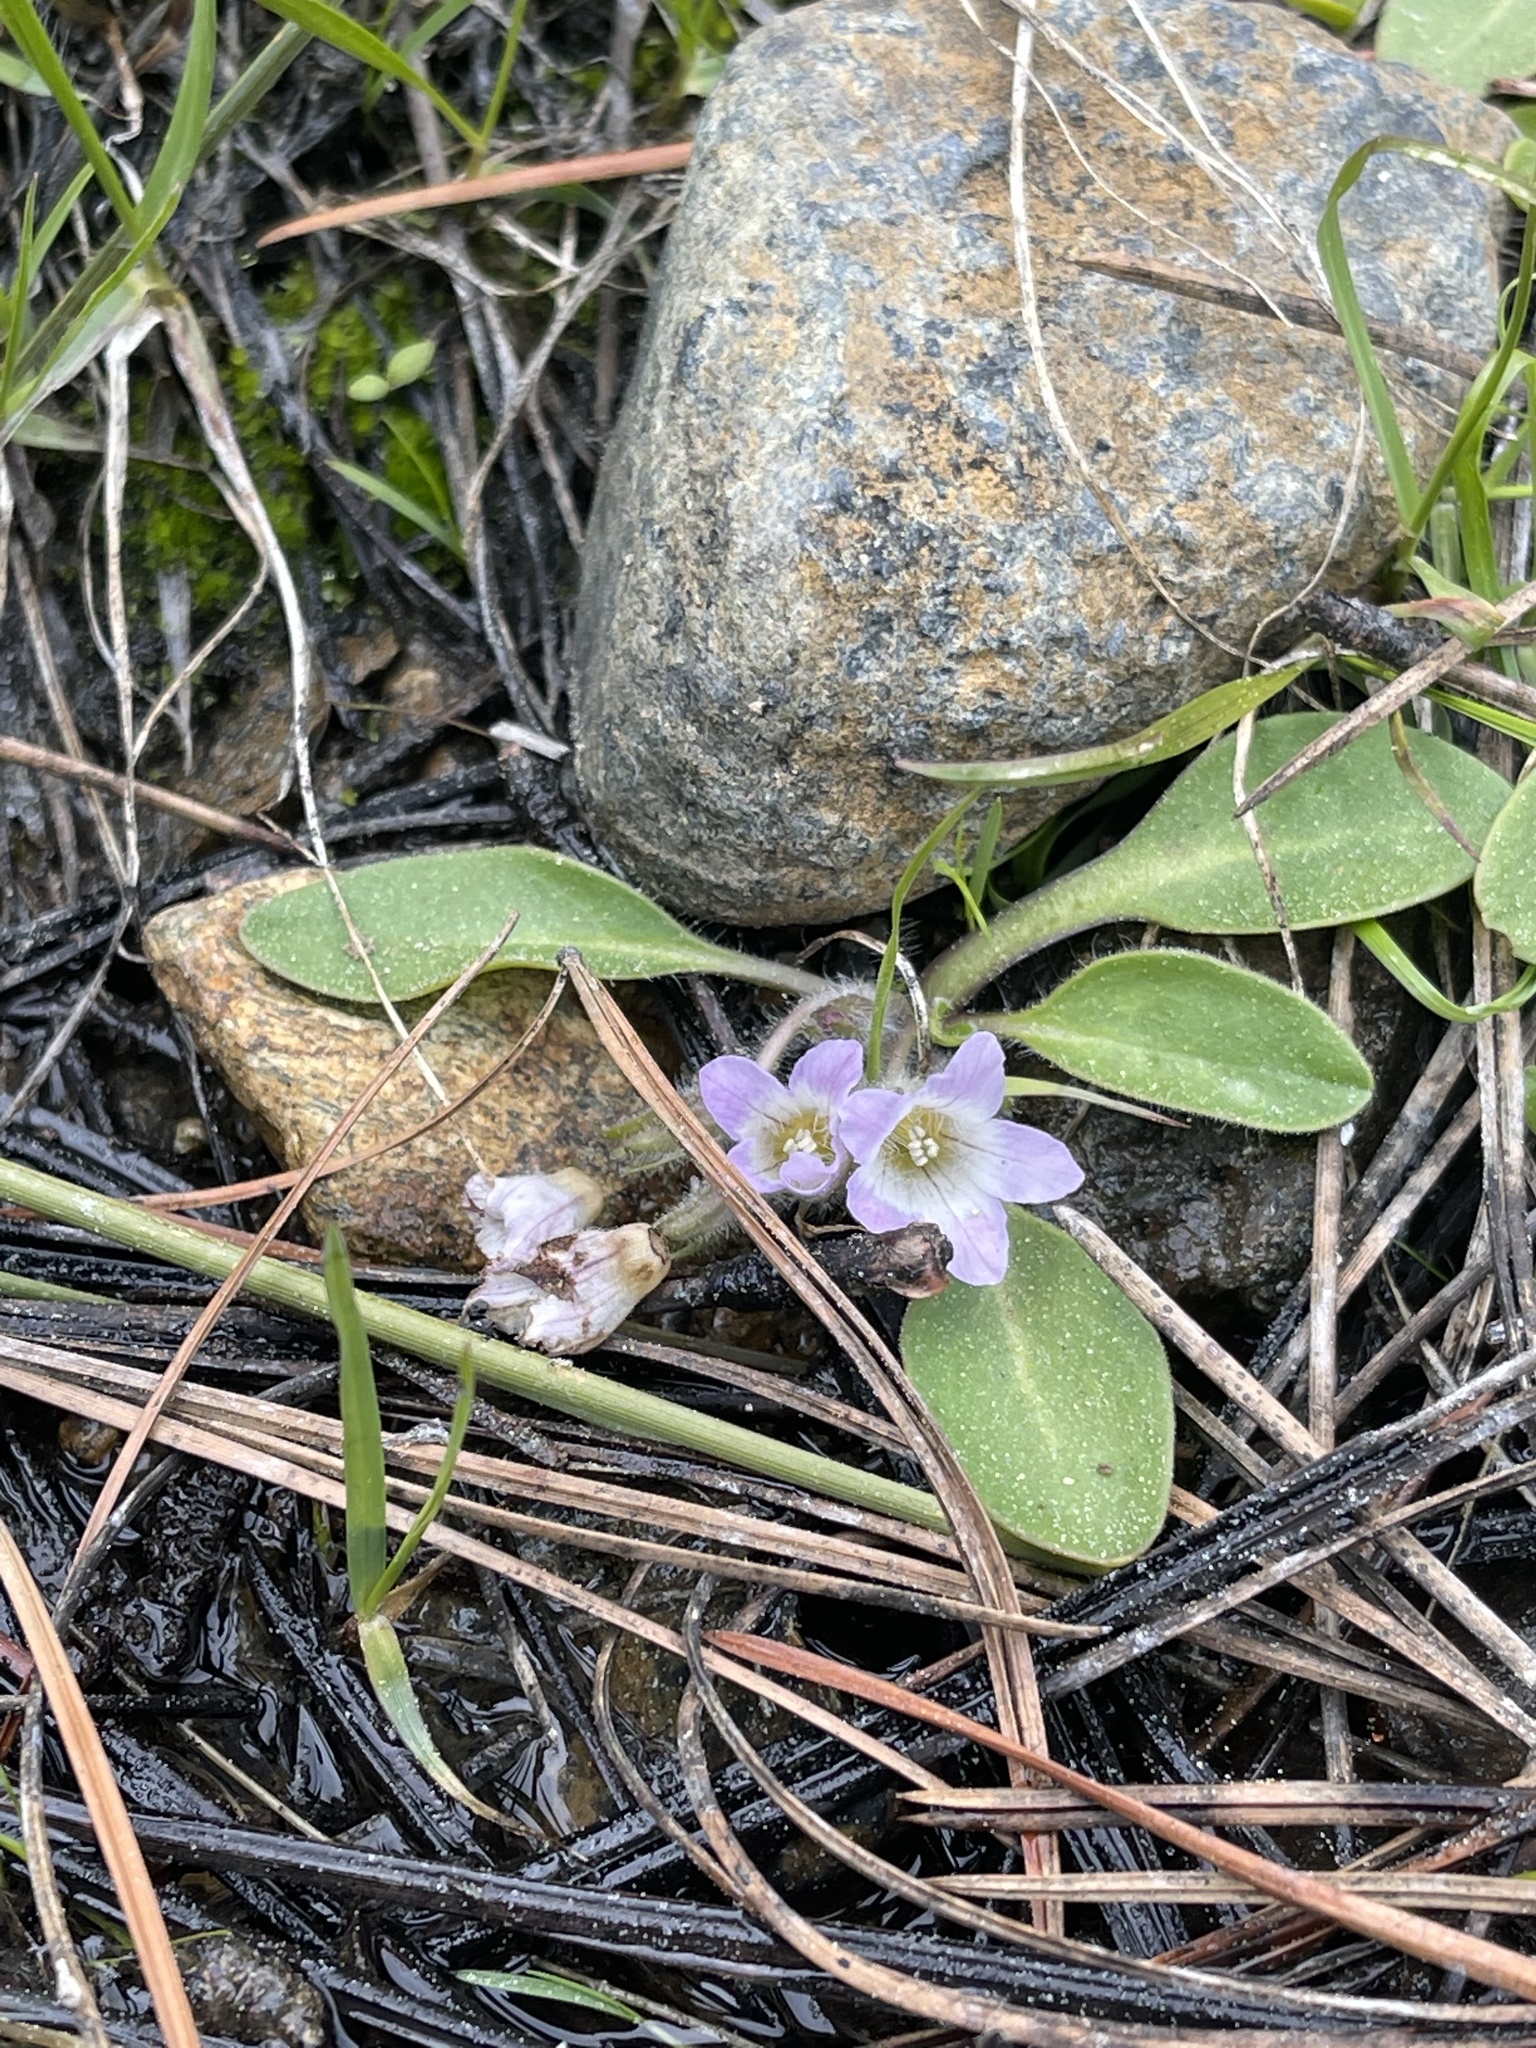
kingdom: Plantae
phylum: Tracheophyta
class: Magnoliopsida
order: Boraginales
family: Hydrophyllaceae
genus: Hesperochiron
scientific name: Hesperochiron californicus
